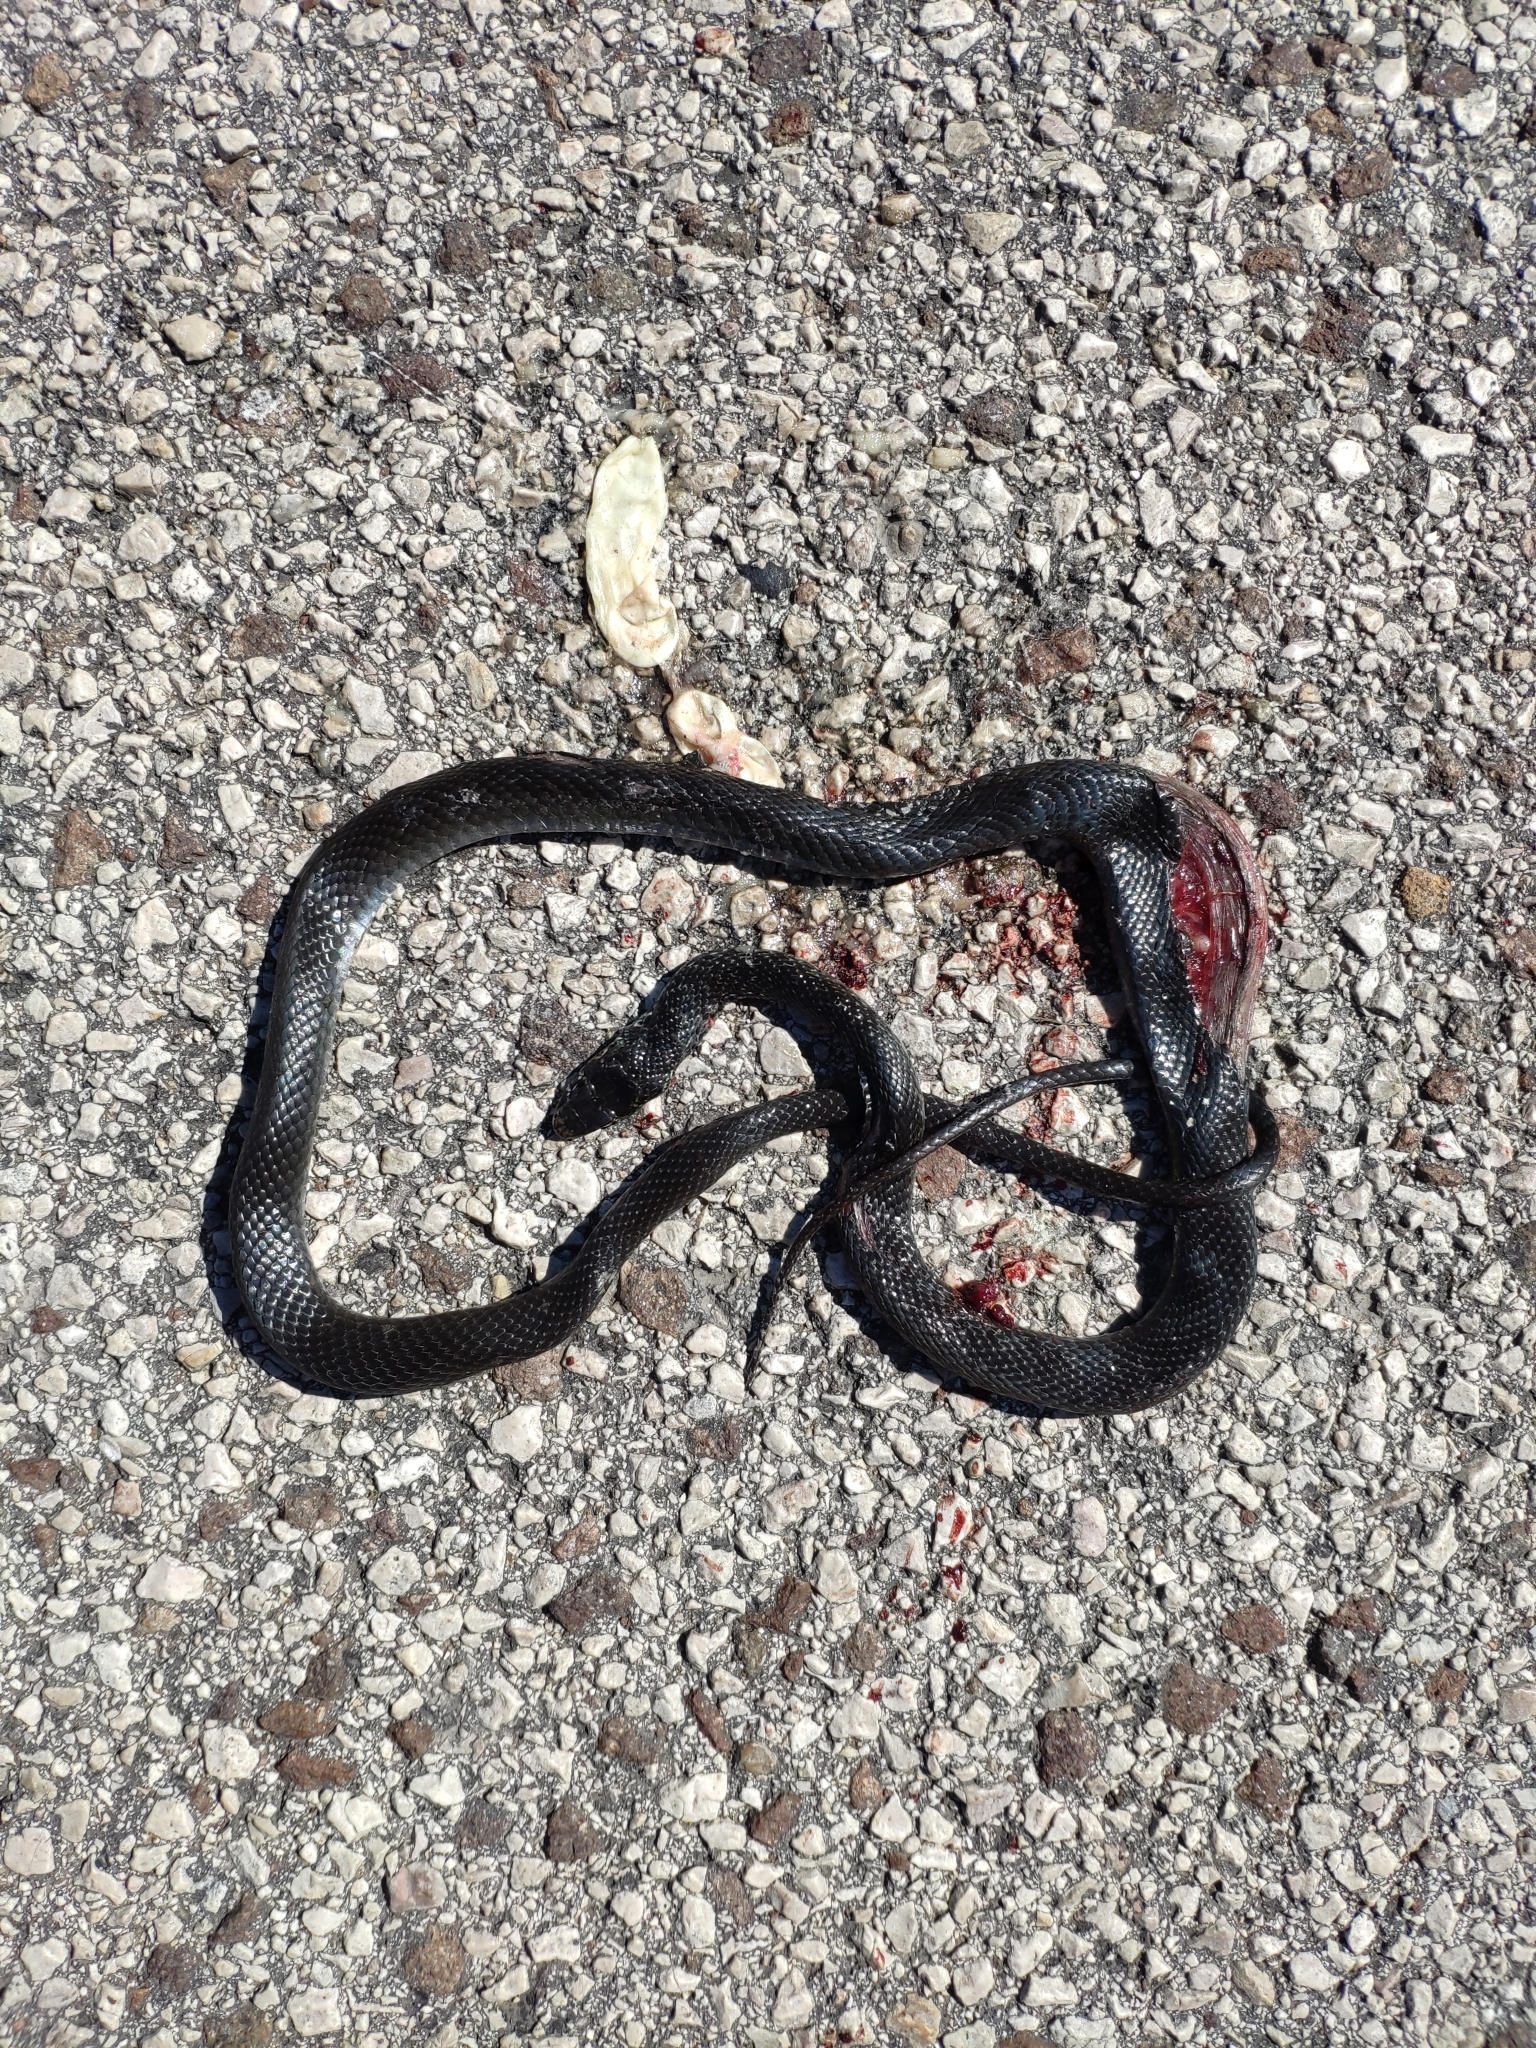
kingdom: Animalia
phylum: Chordata
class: Squamata
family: Colubridae
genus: Hierophis
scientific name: Hierophis viridiflavus
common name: Green whip snake
